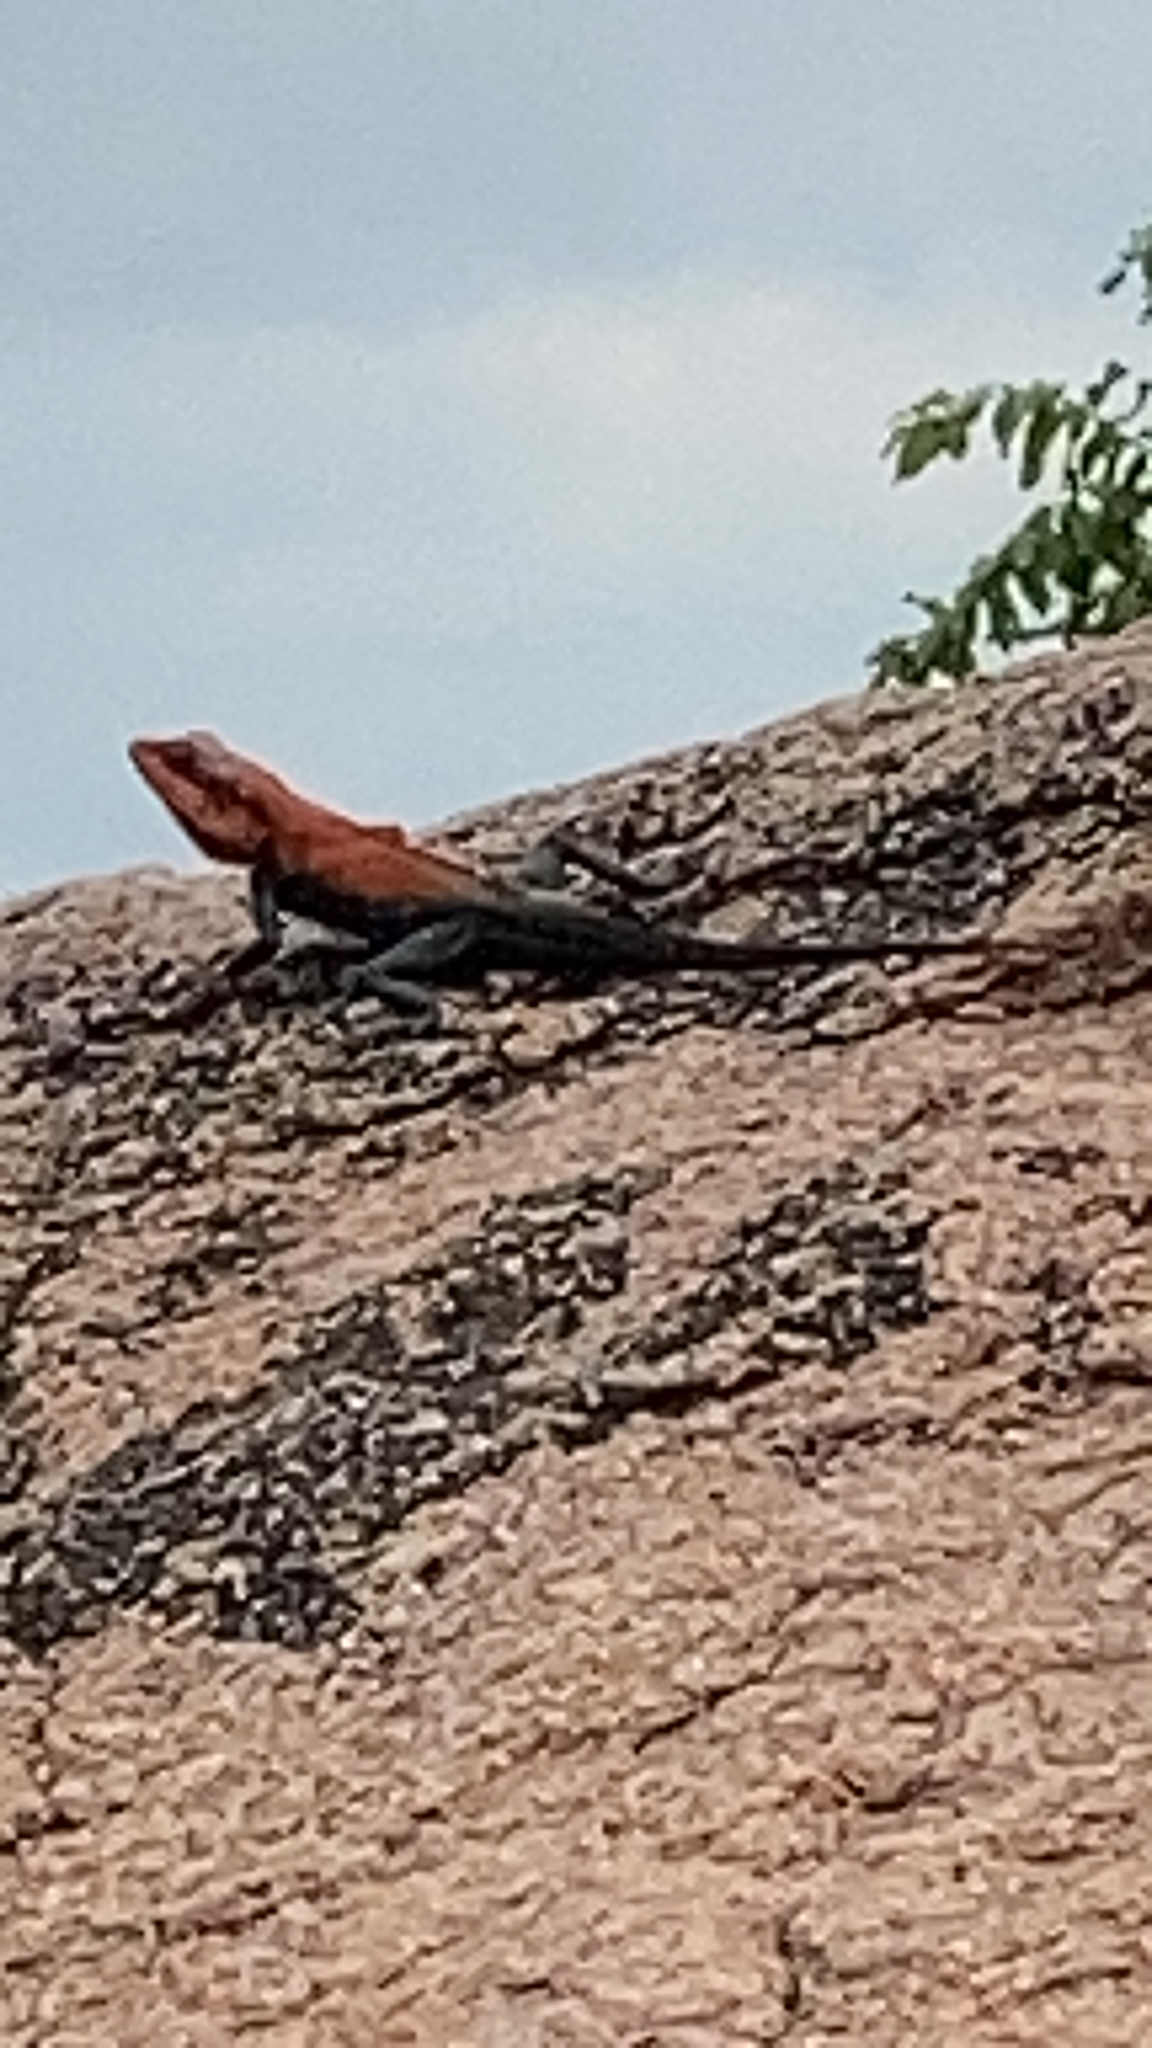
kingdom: Animalia
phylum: Chordata
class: Squamata
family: Agamidae
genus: Psammophilus
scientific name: Psammophilus dorsalis
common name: South indian rock agama
